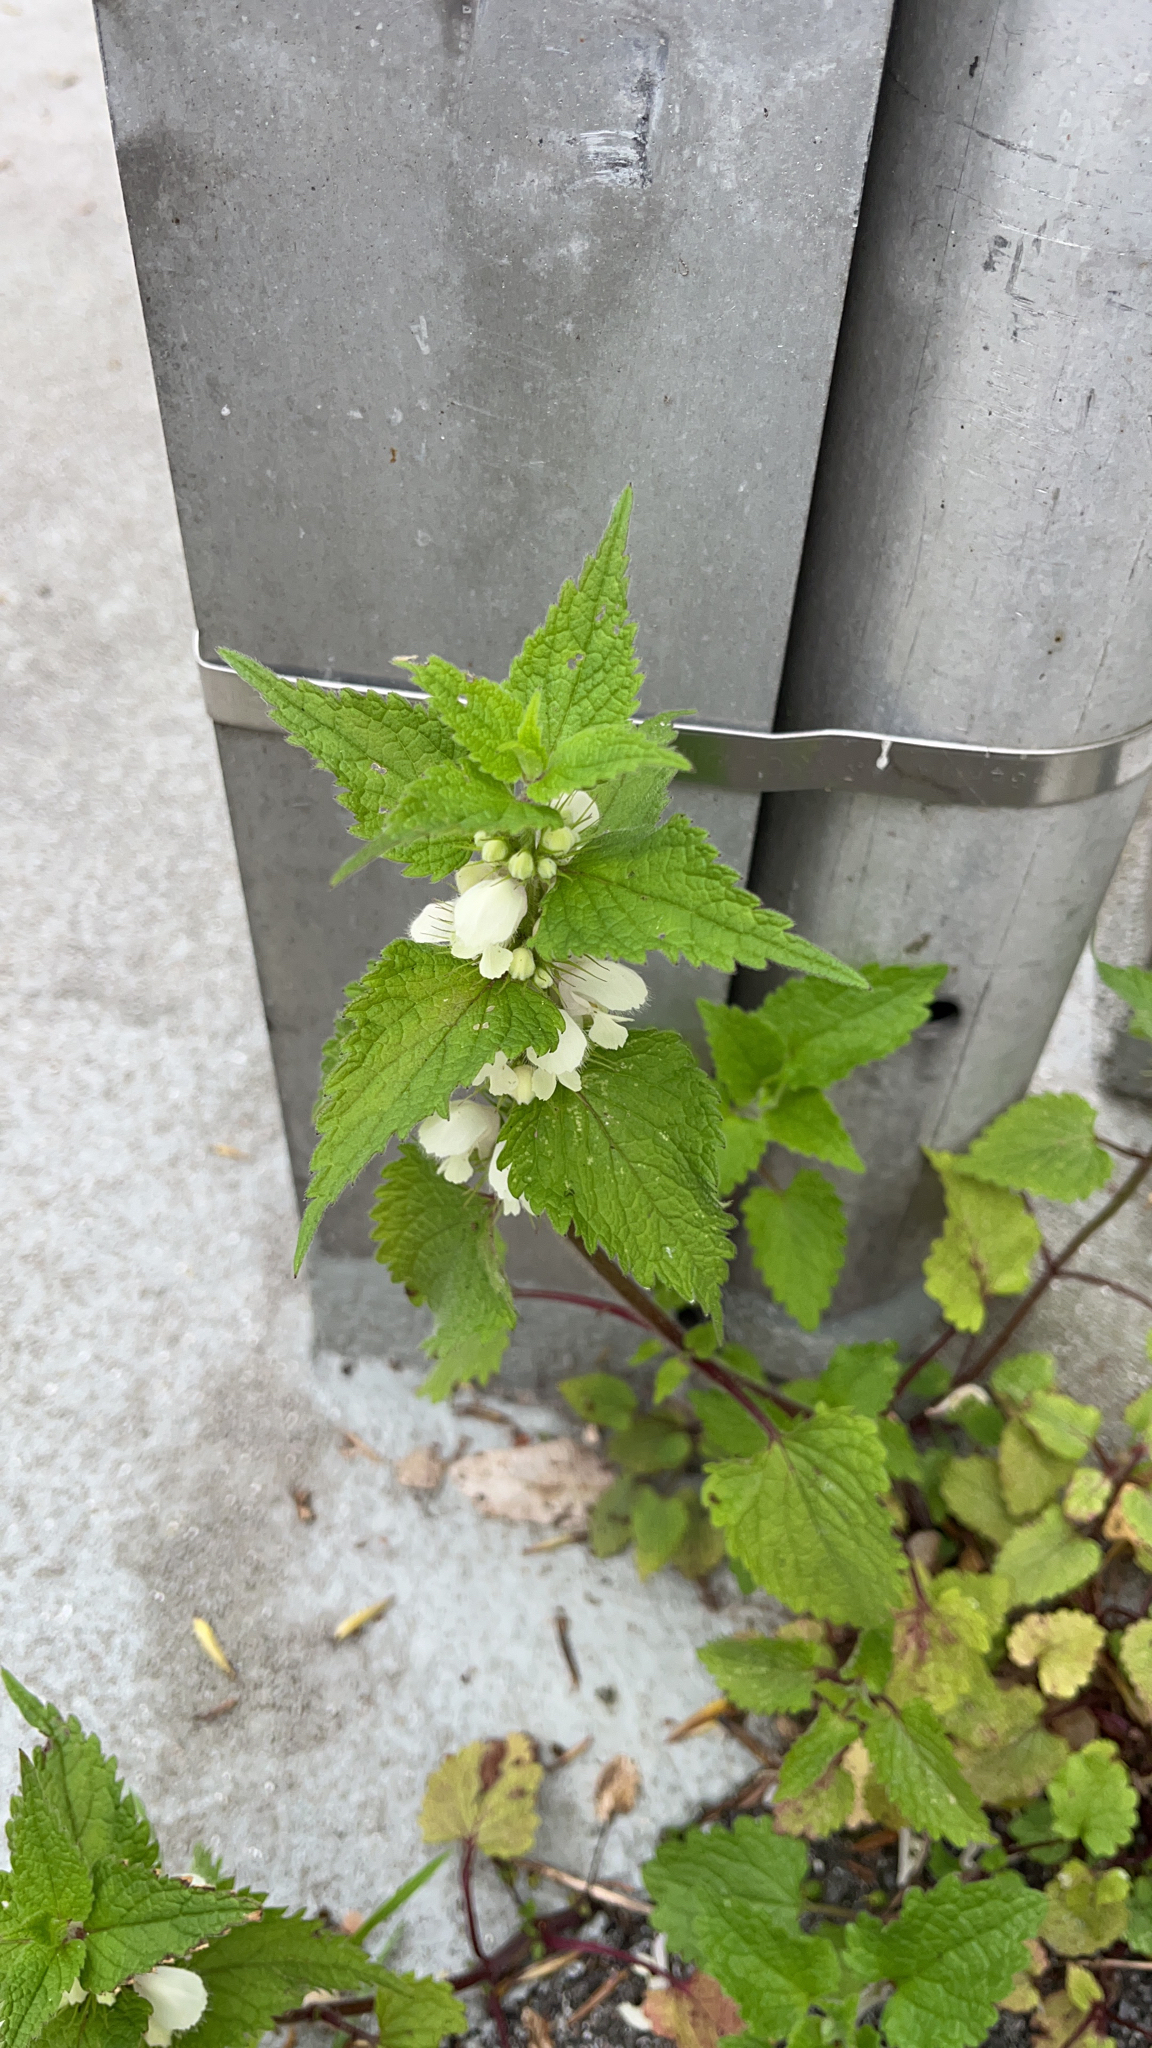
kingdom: Plantae
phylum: Tracheophyta
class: Magnoliopsida
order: Lamiales
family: Lamiaceae
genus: Lamium
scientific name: Lamium album
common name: White dead-nettle
